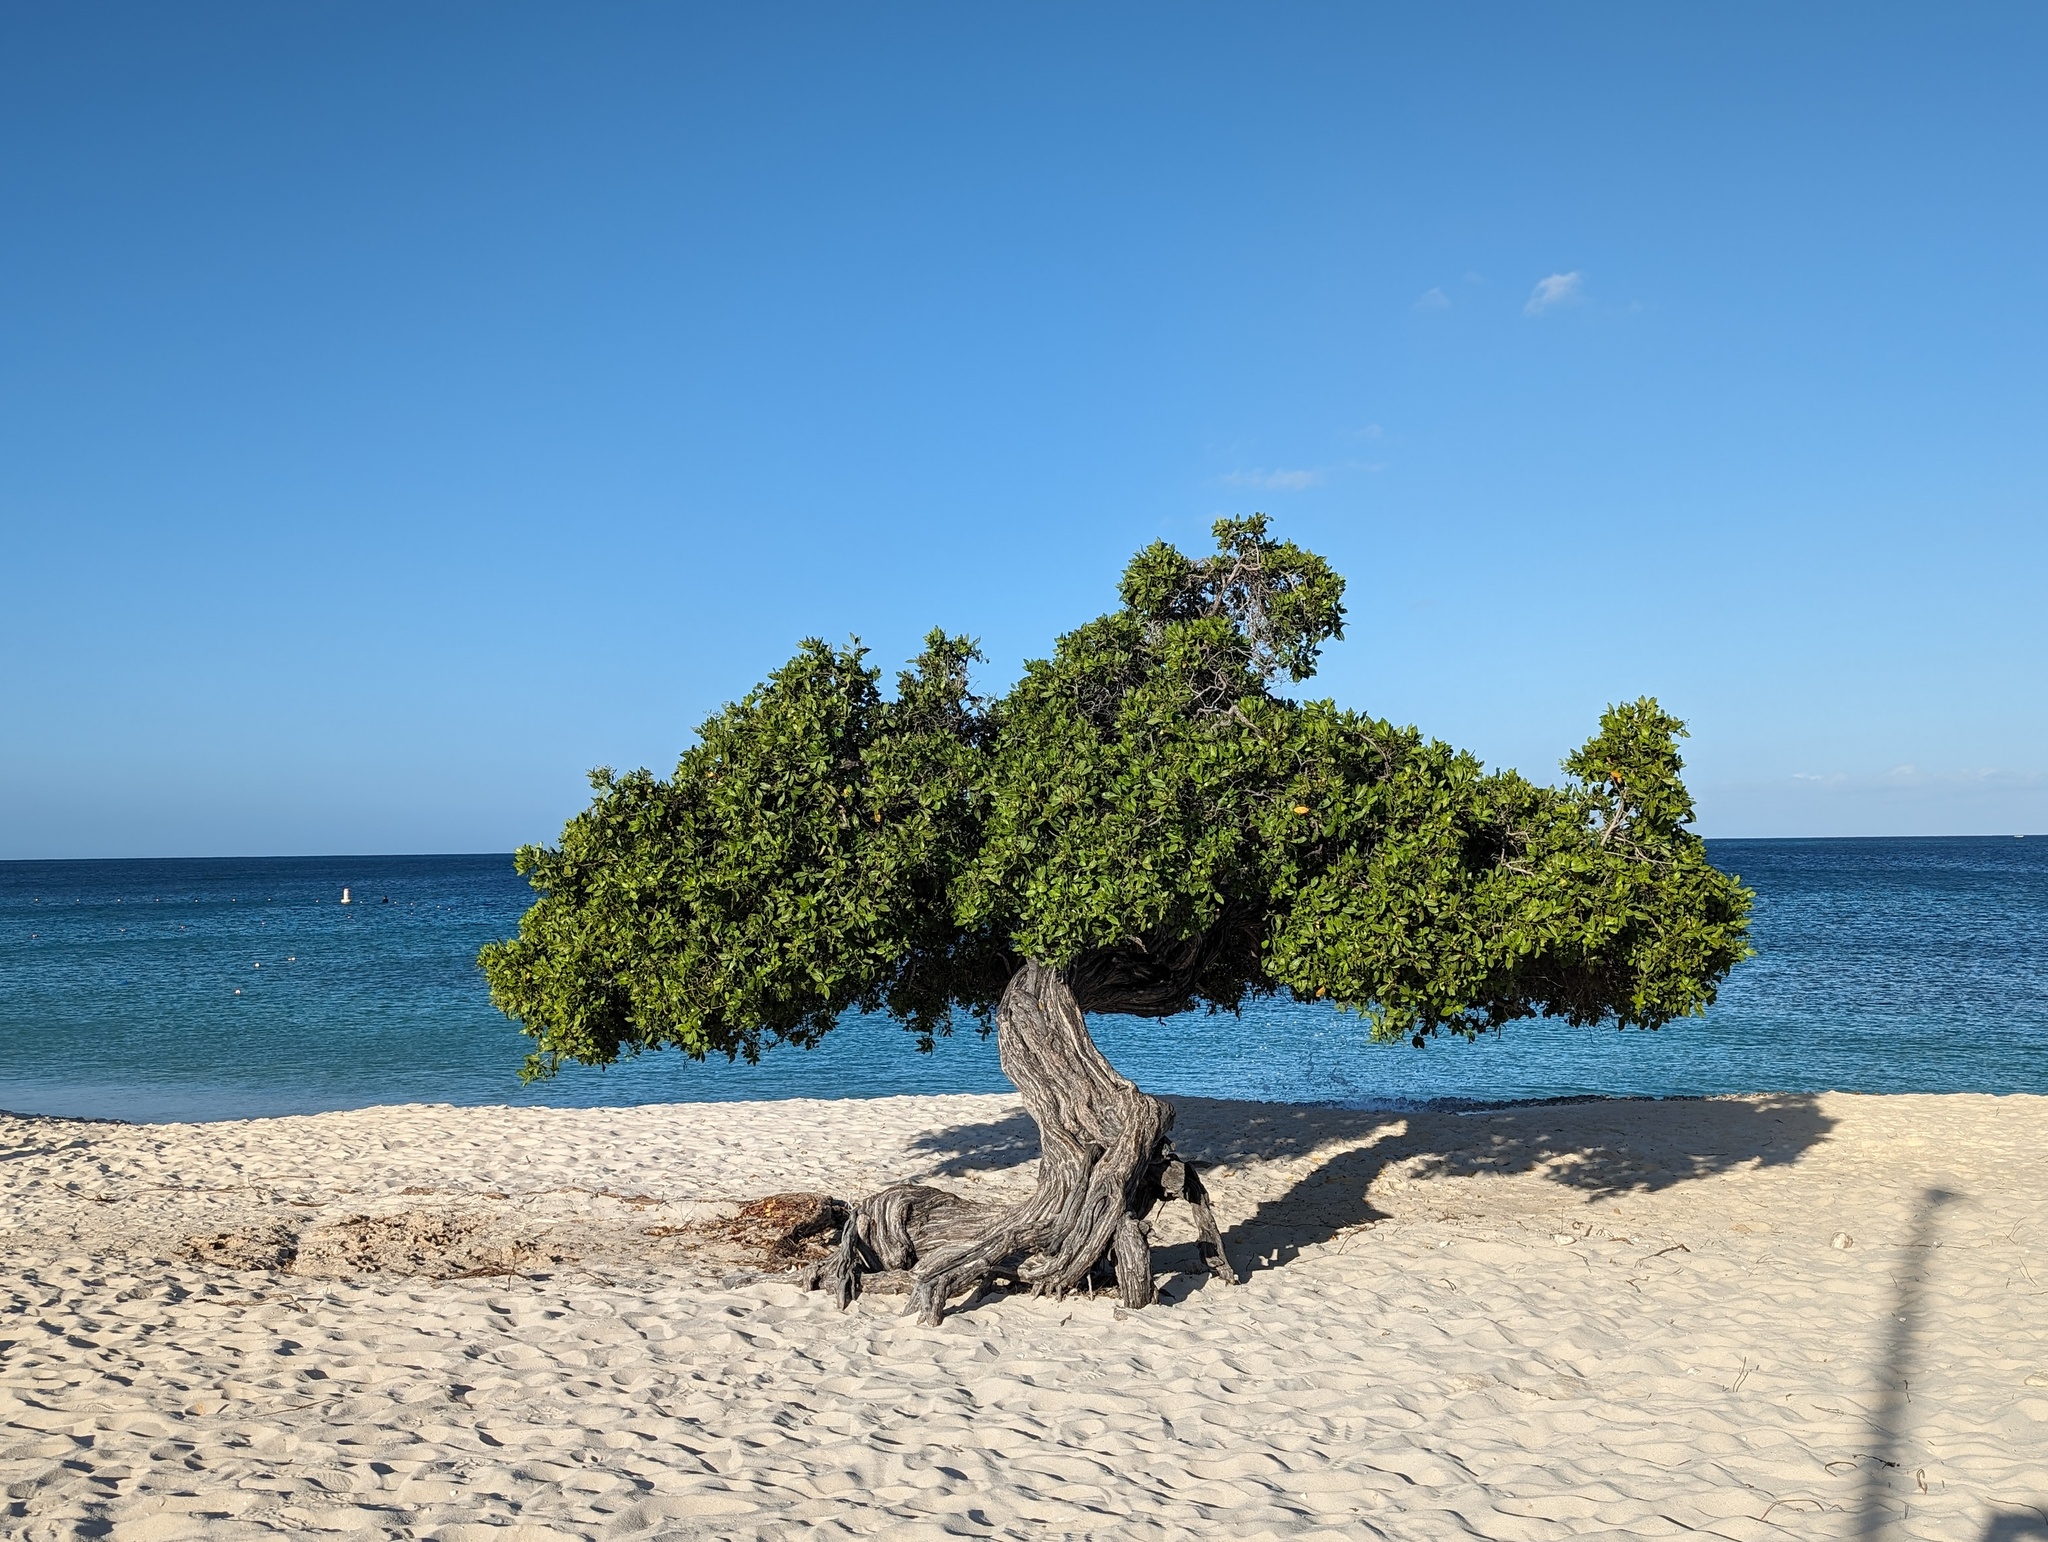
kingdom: Plantae
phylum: Tracheophyta
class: Magnoliopsida
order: Myrtales
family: Combretaceae
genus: Conocarpus
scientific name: Conocarpus erectus
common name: Button mangrove
